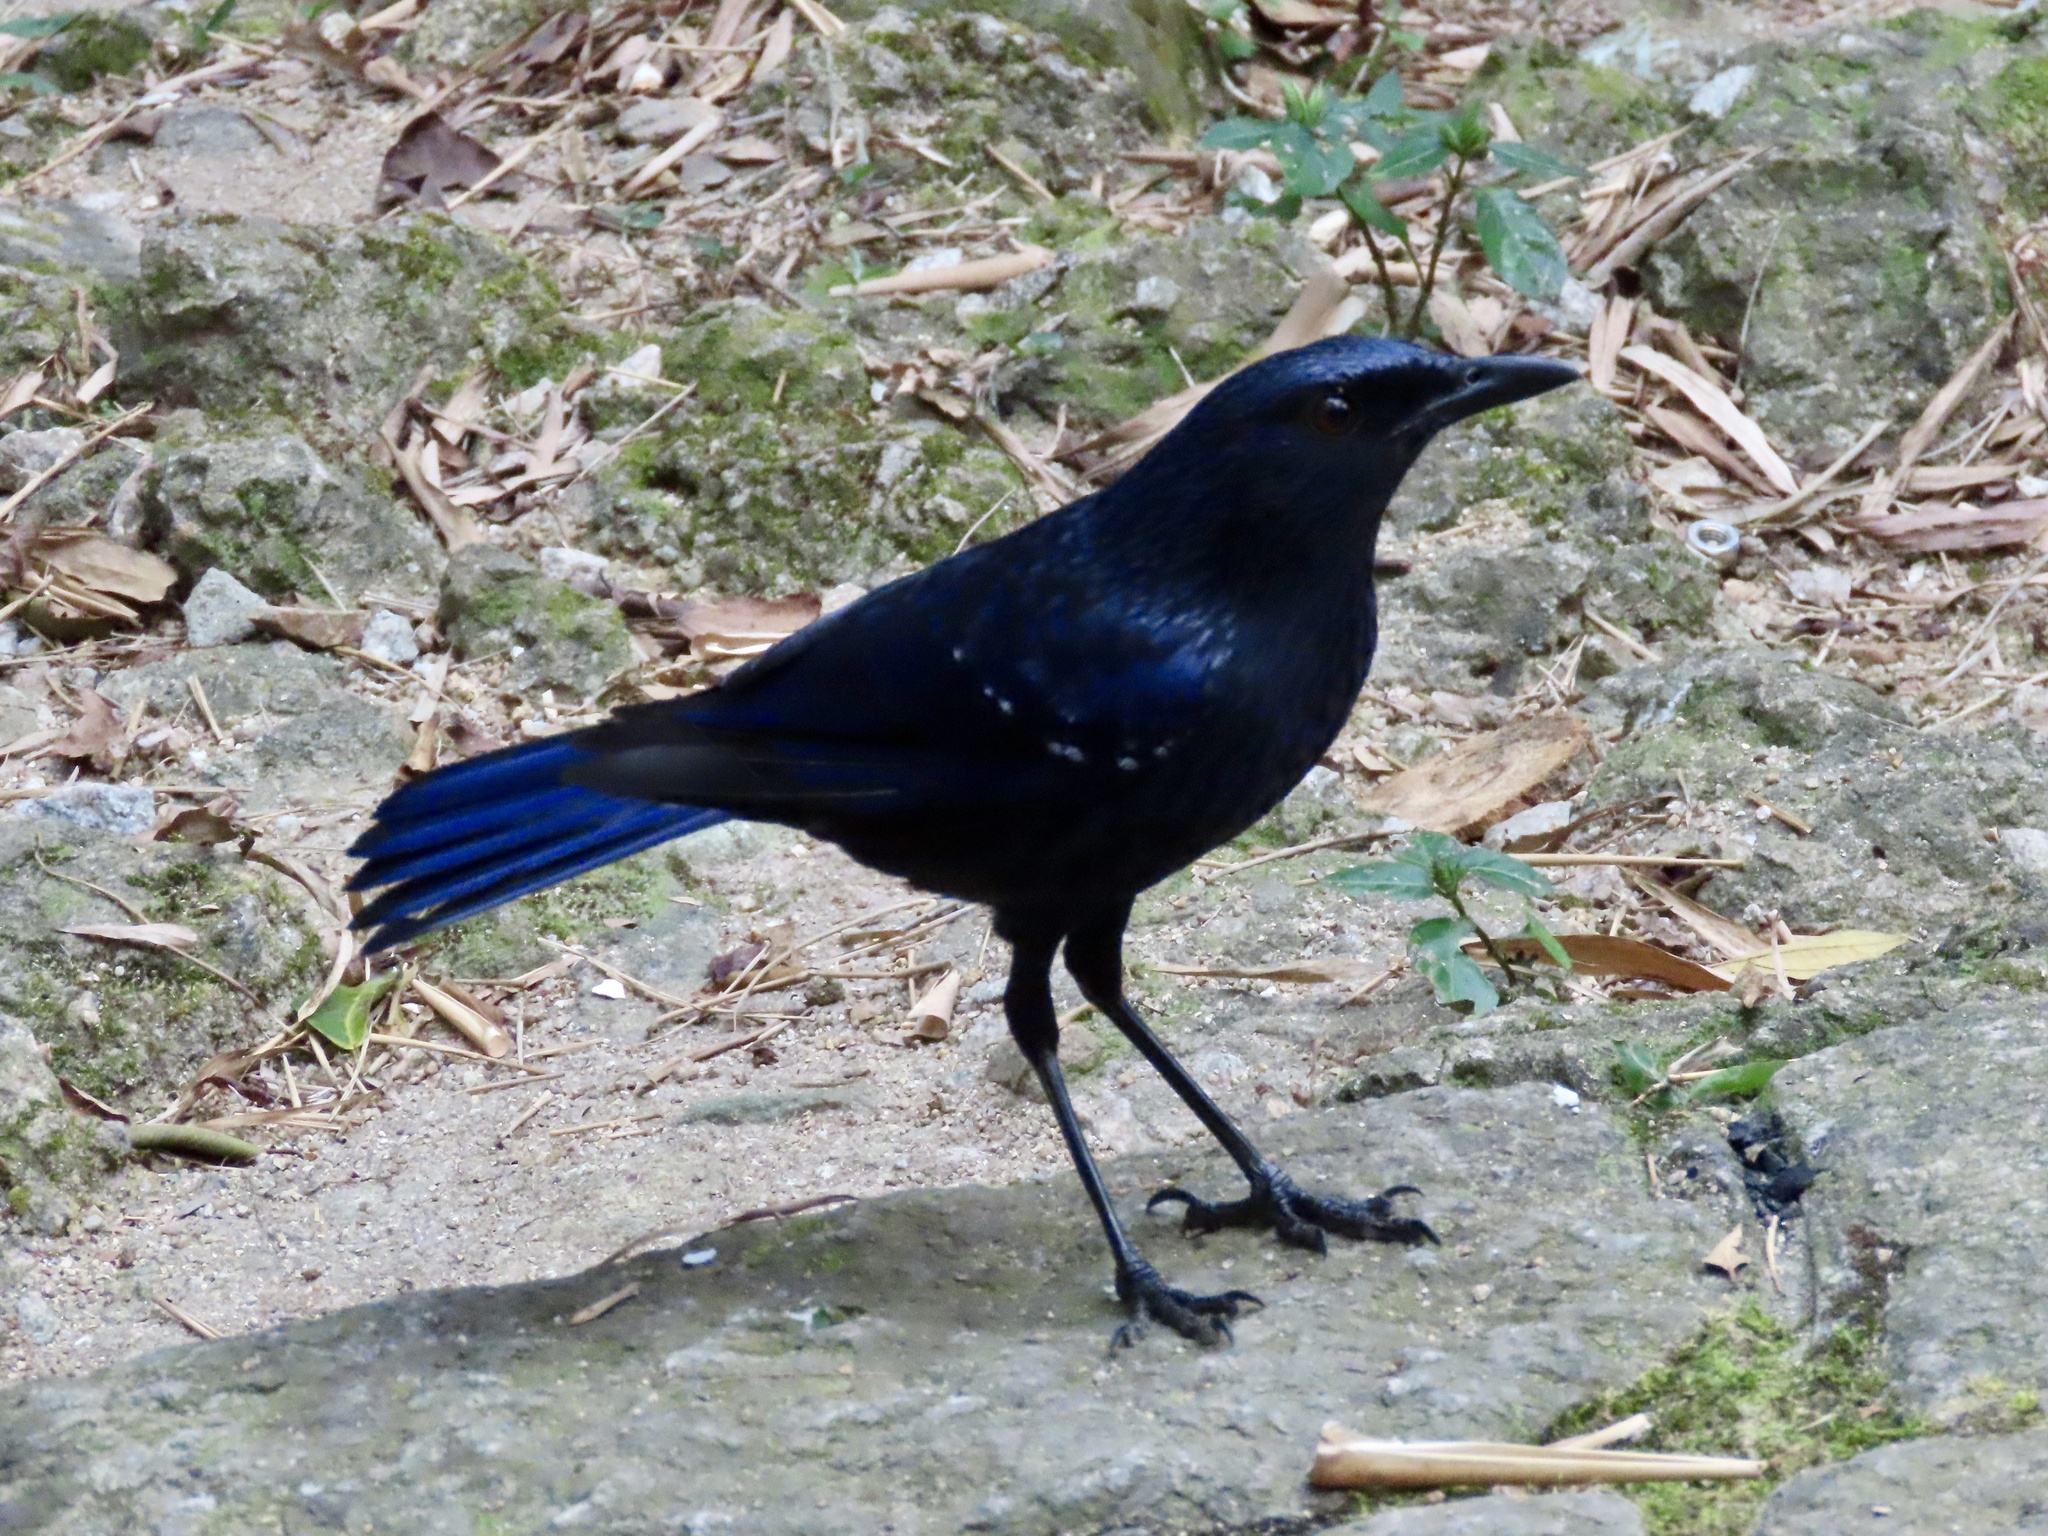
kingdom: Animalia
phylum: Chordata
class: Aves
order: Passeriformes
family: Muscicapidae
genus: Myophonus
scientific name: Myophonus caeruleus
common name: Blue whistling-thrush
